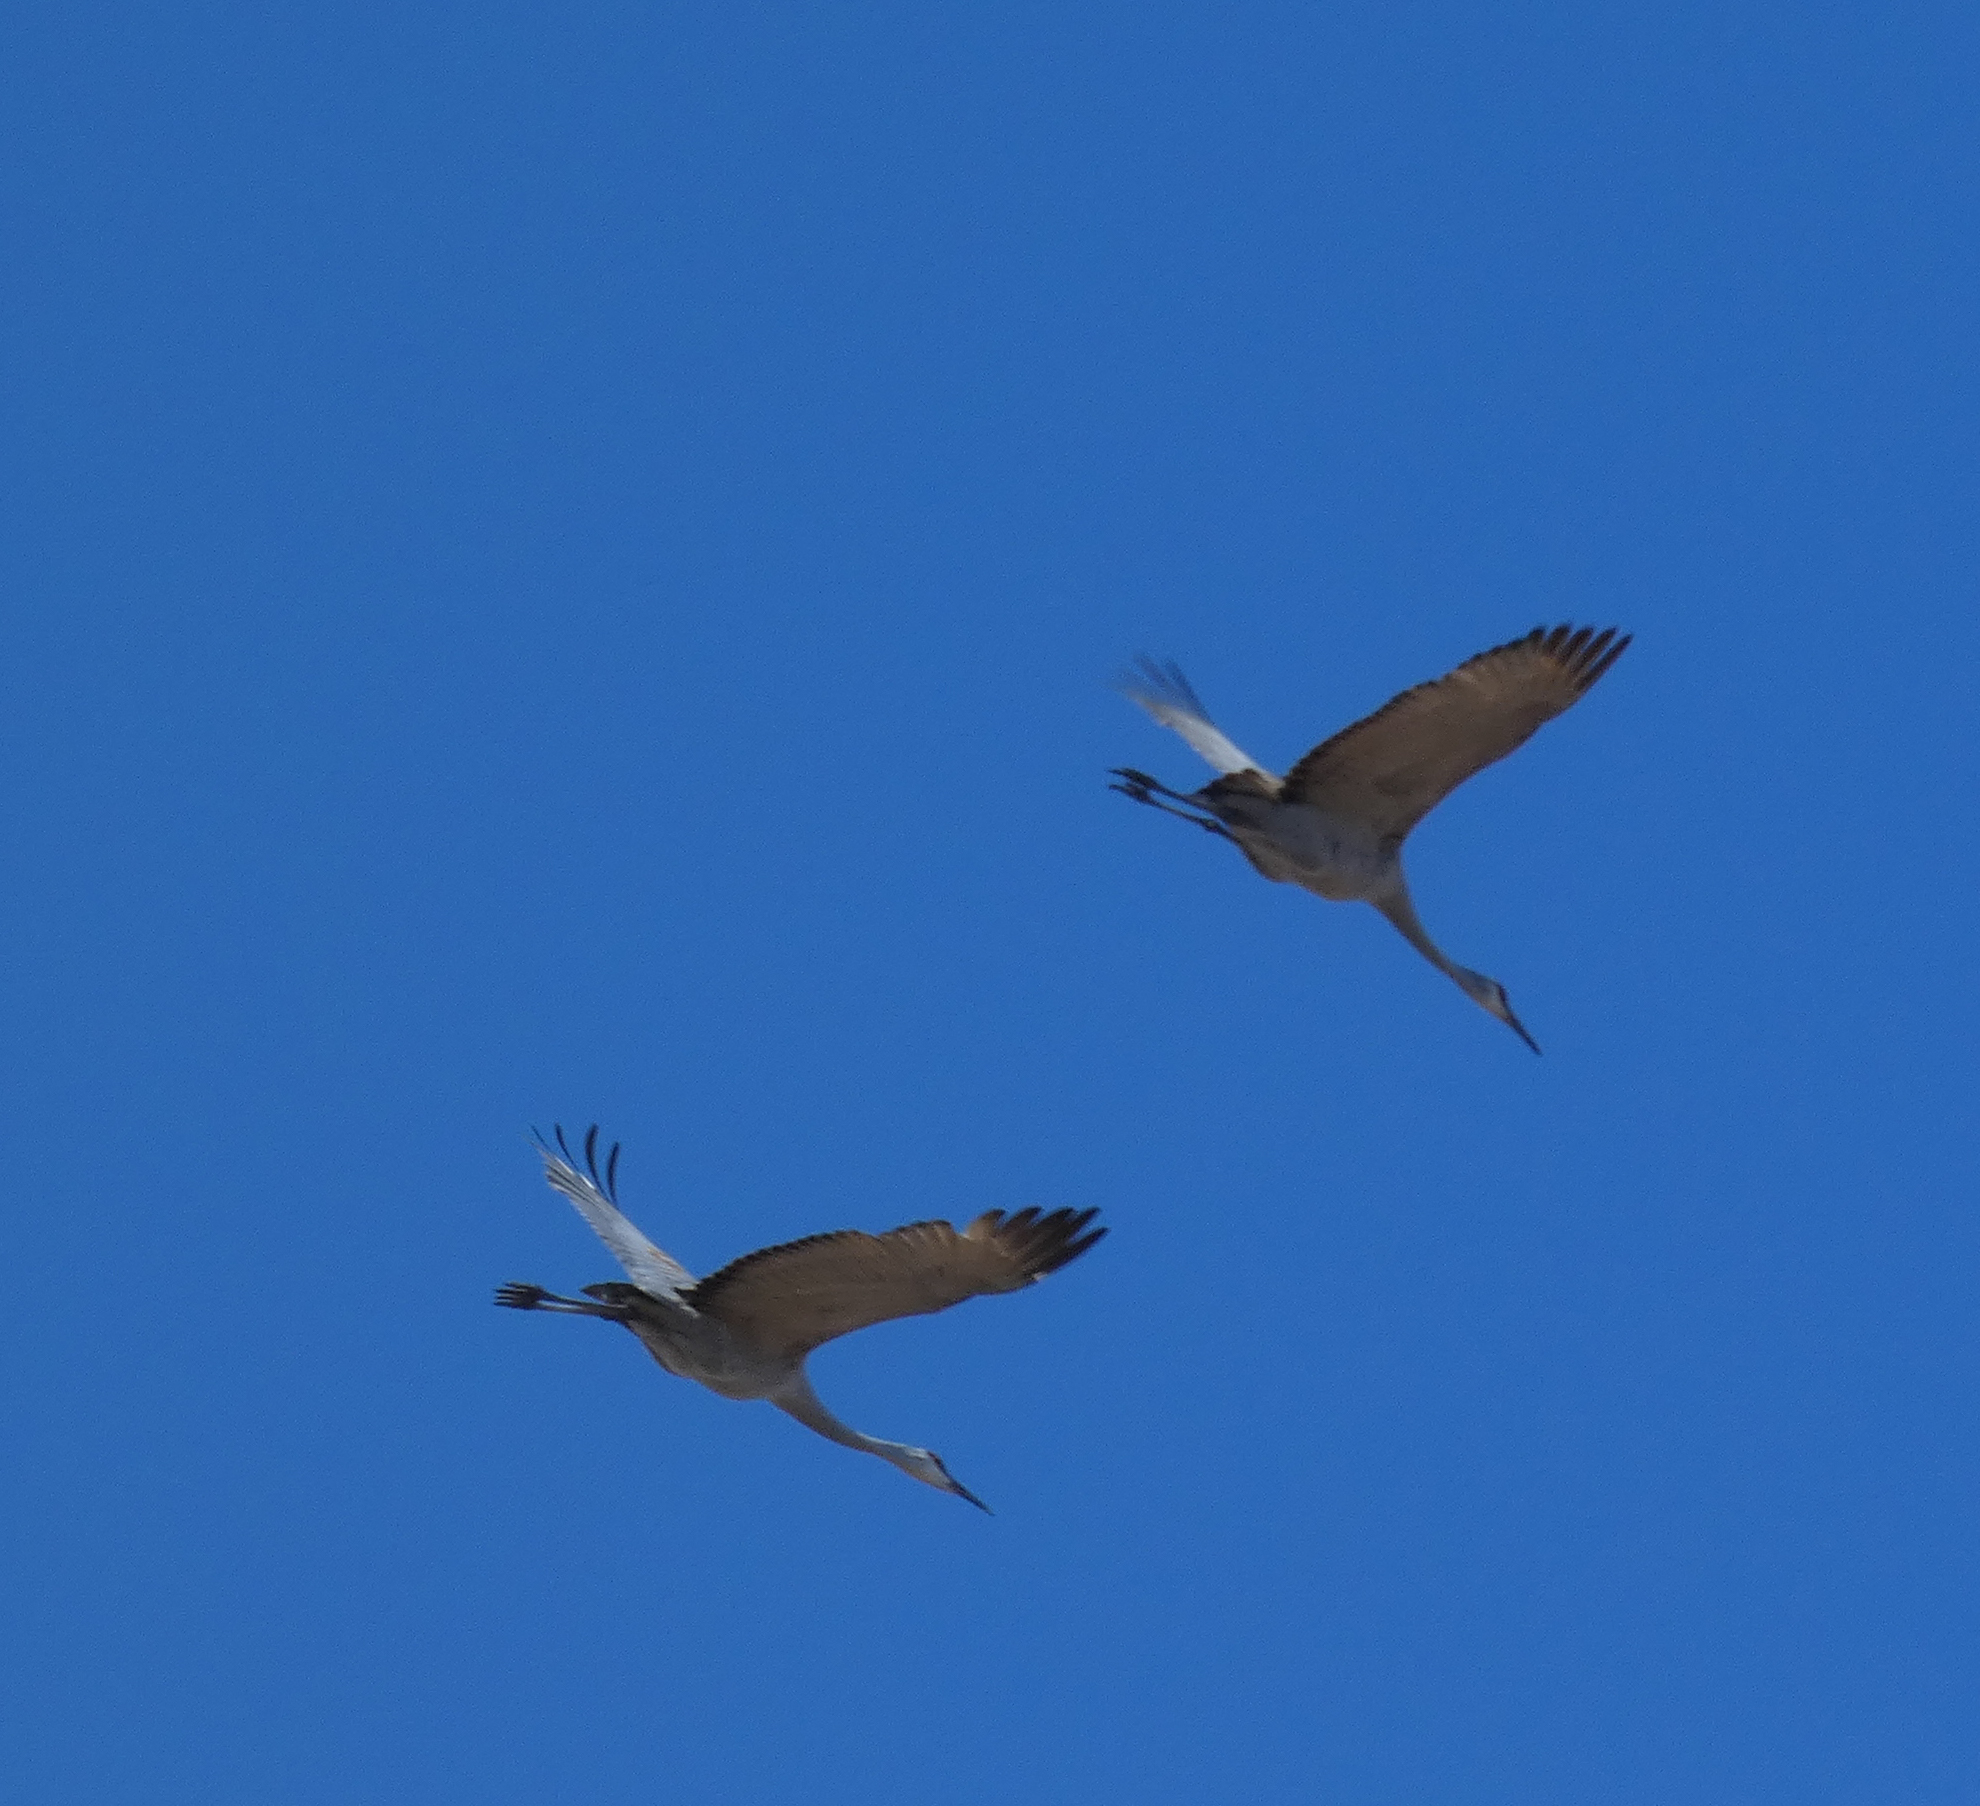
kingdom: Animalia
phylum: Chordata
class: Aves
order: Gruiformes
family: Gruidae
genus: Grus
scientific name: Grus canadensis
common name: Sandhill crane
